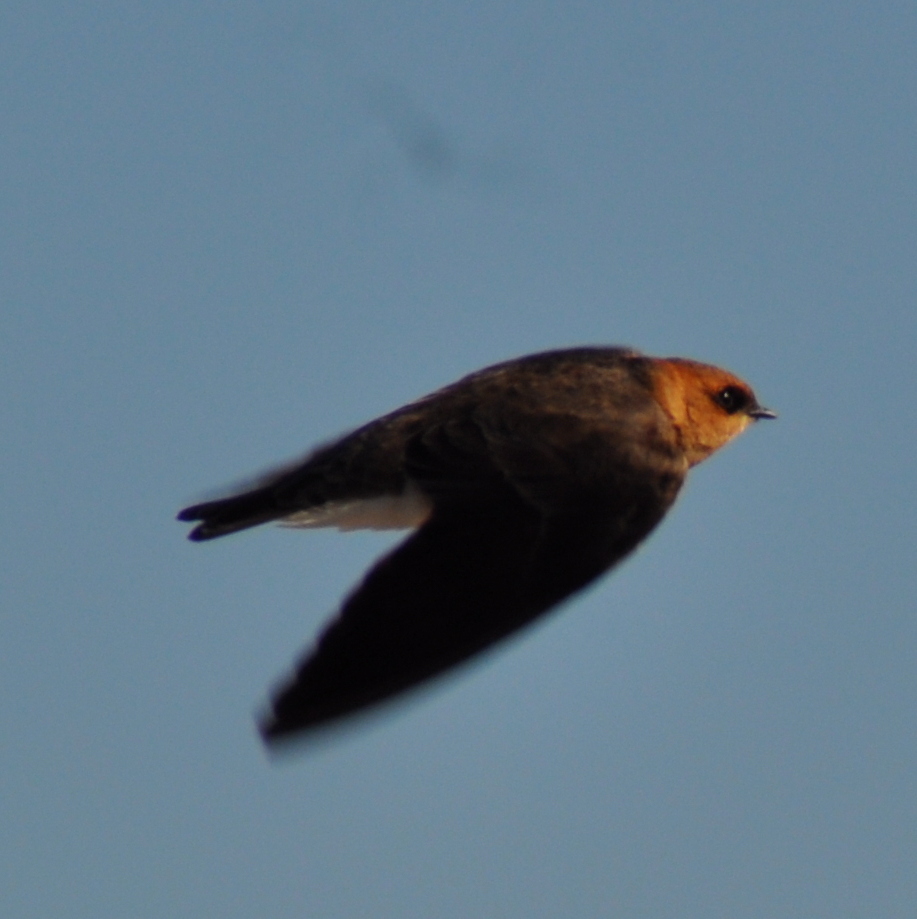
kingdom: Animalia
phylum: Chordata
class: Aves
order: Passeriformes
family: Hirundinidae
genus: Alopochelidon
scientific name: Alopochelidon fucata
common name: Tawny-headed swallow
